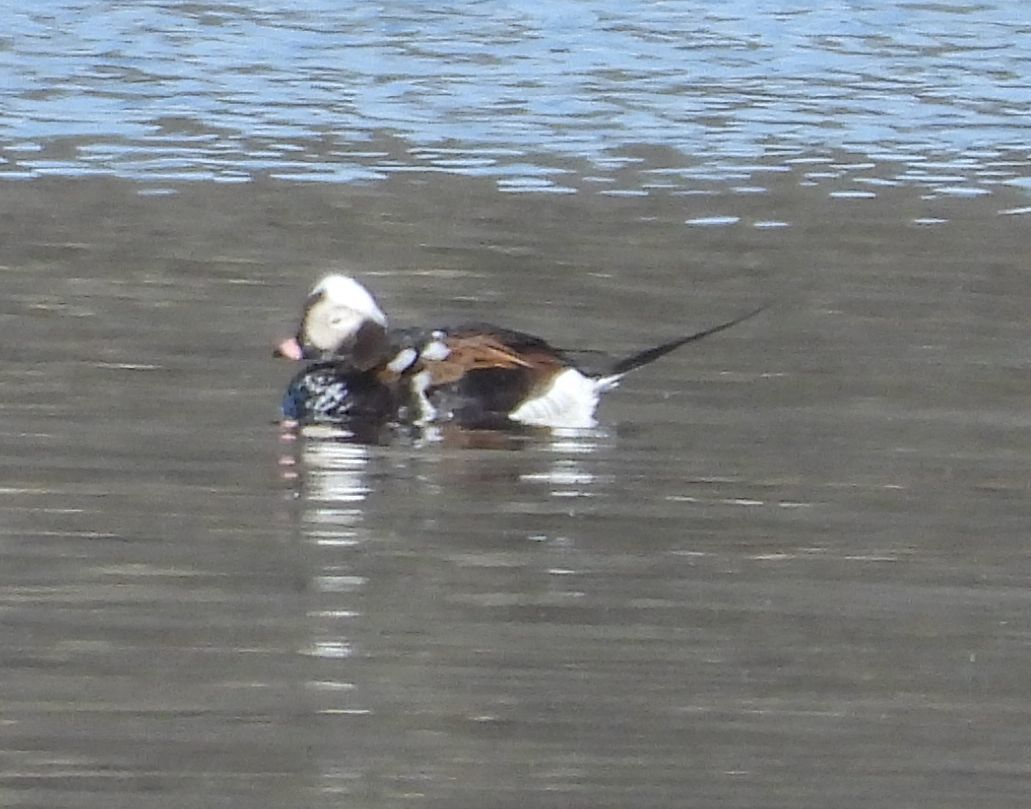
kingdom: Animalia
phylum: Chordata
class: Aves
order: Anseriformes
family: Anatidae
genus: Clangula
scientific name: Clangula hyemalis
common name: Long-tailed duck
